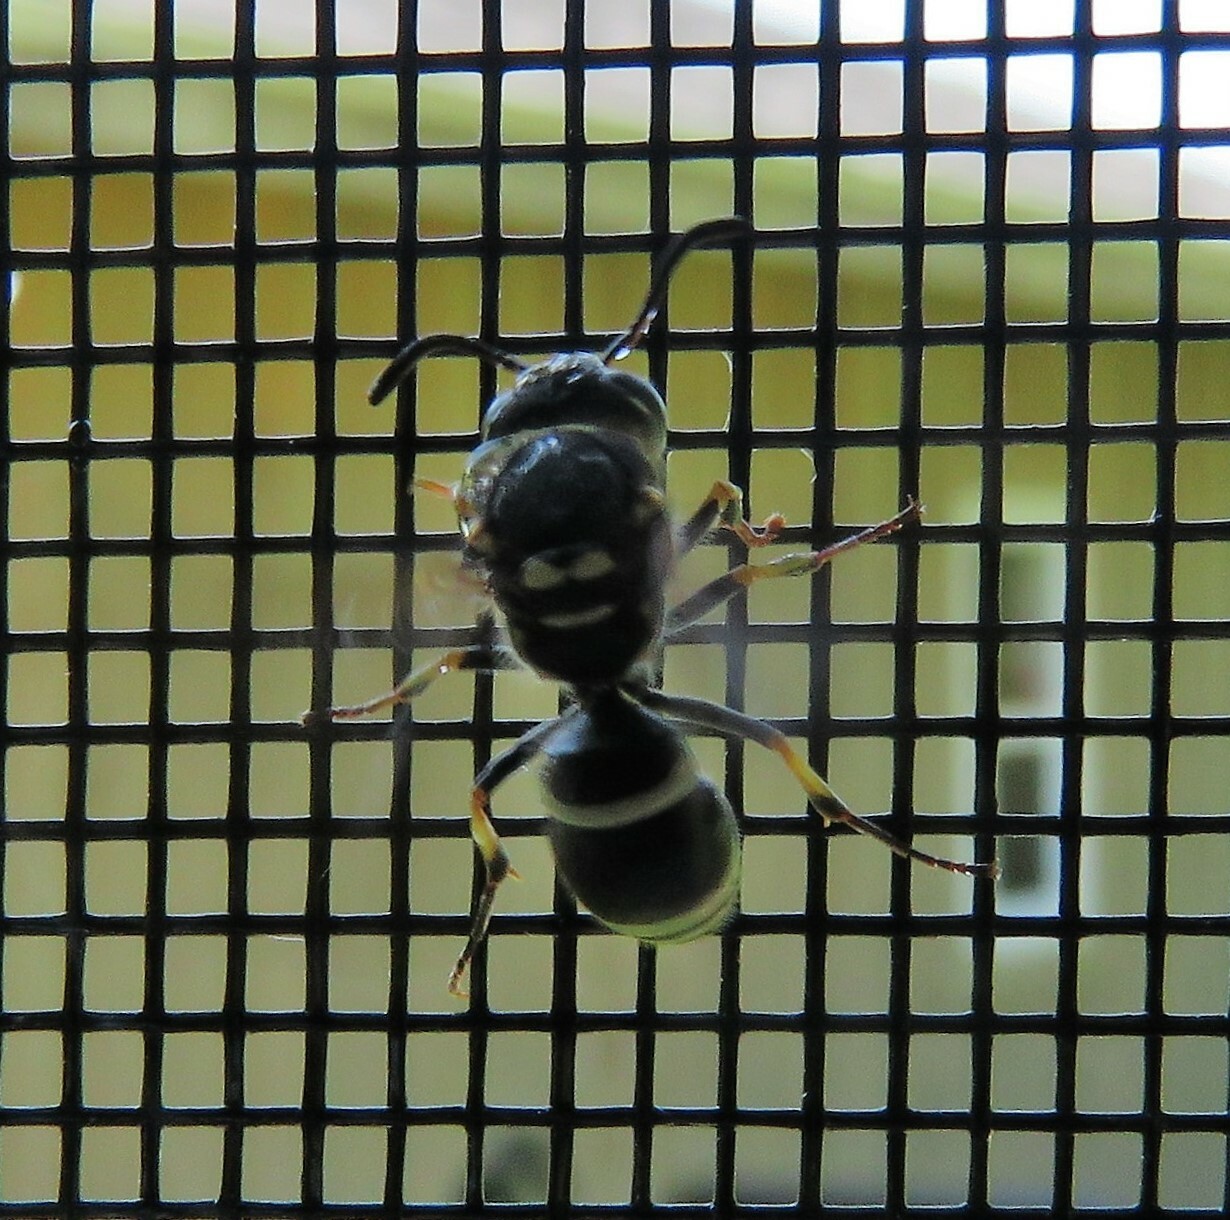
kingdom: Animalia
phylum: Arthropoda
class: Insecta
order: Hymenoptera
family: Vespidae
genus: Ancistrocerus
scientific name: Ancistrocerus catskill
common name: Vespid wasp
